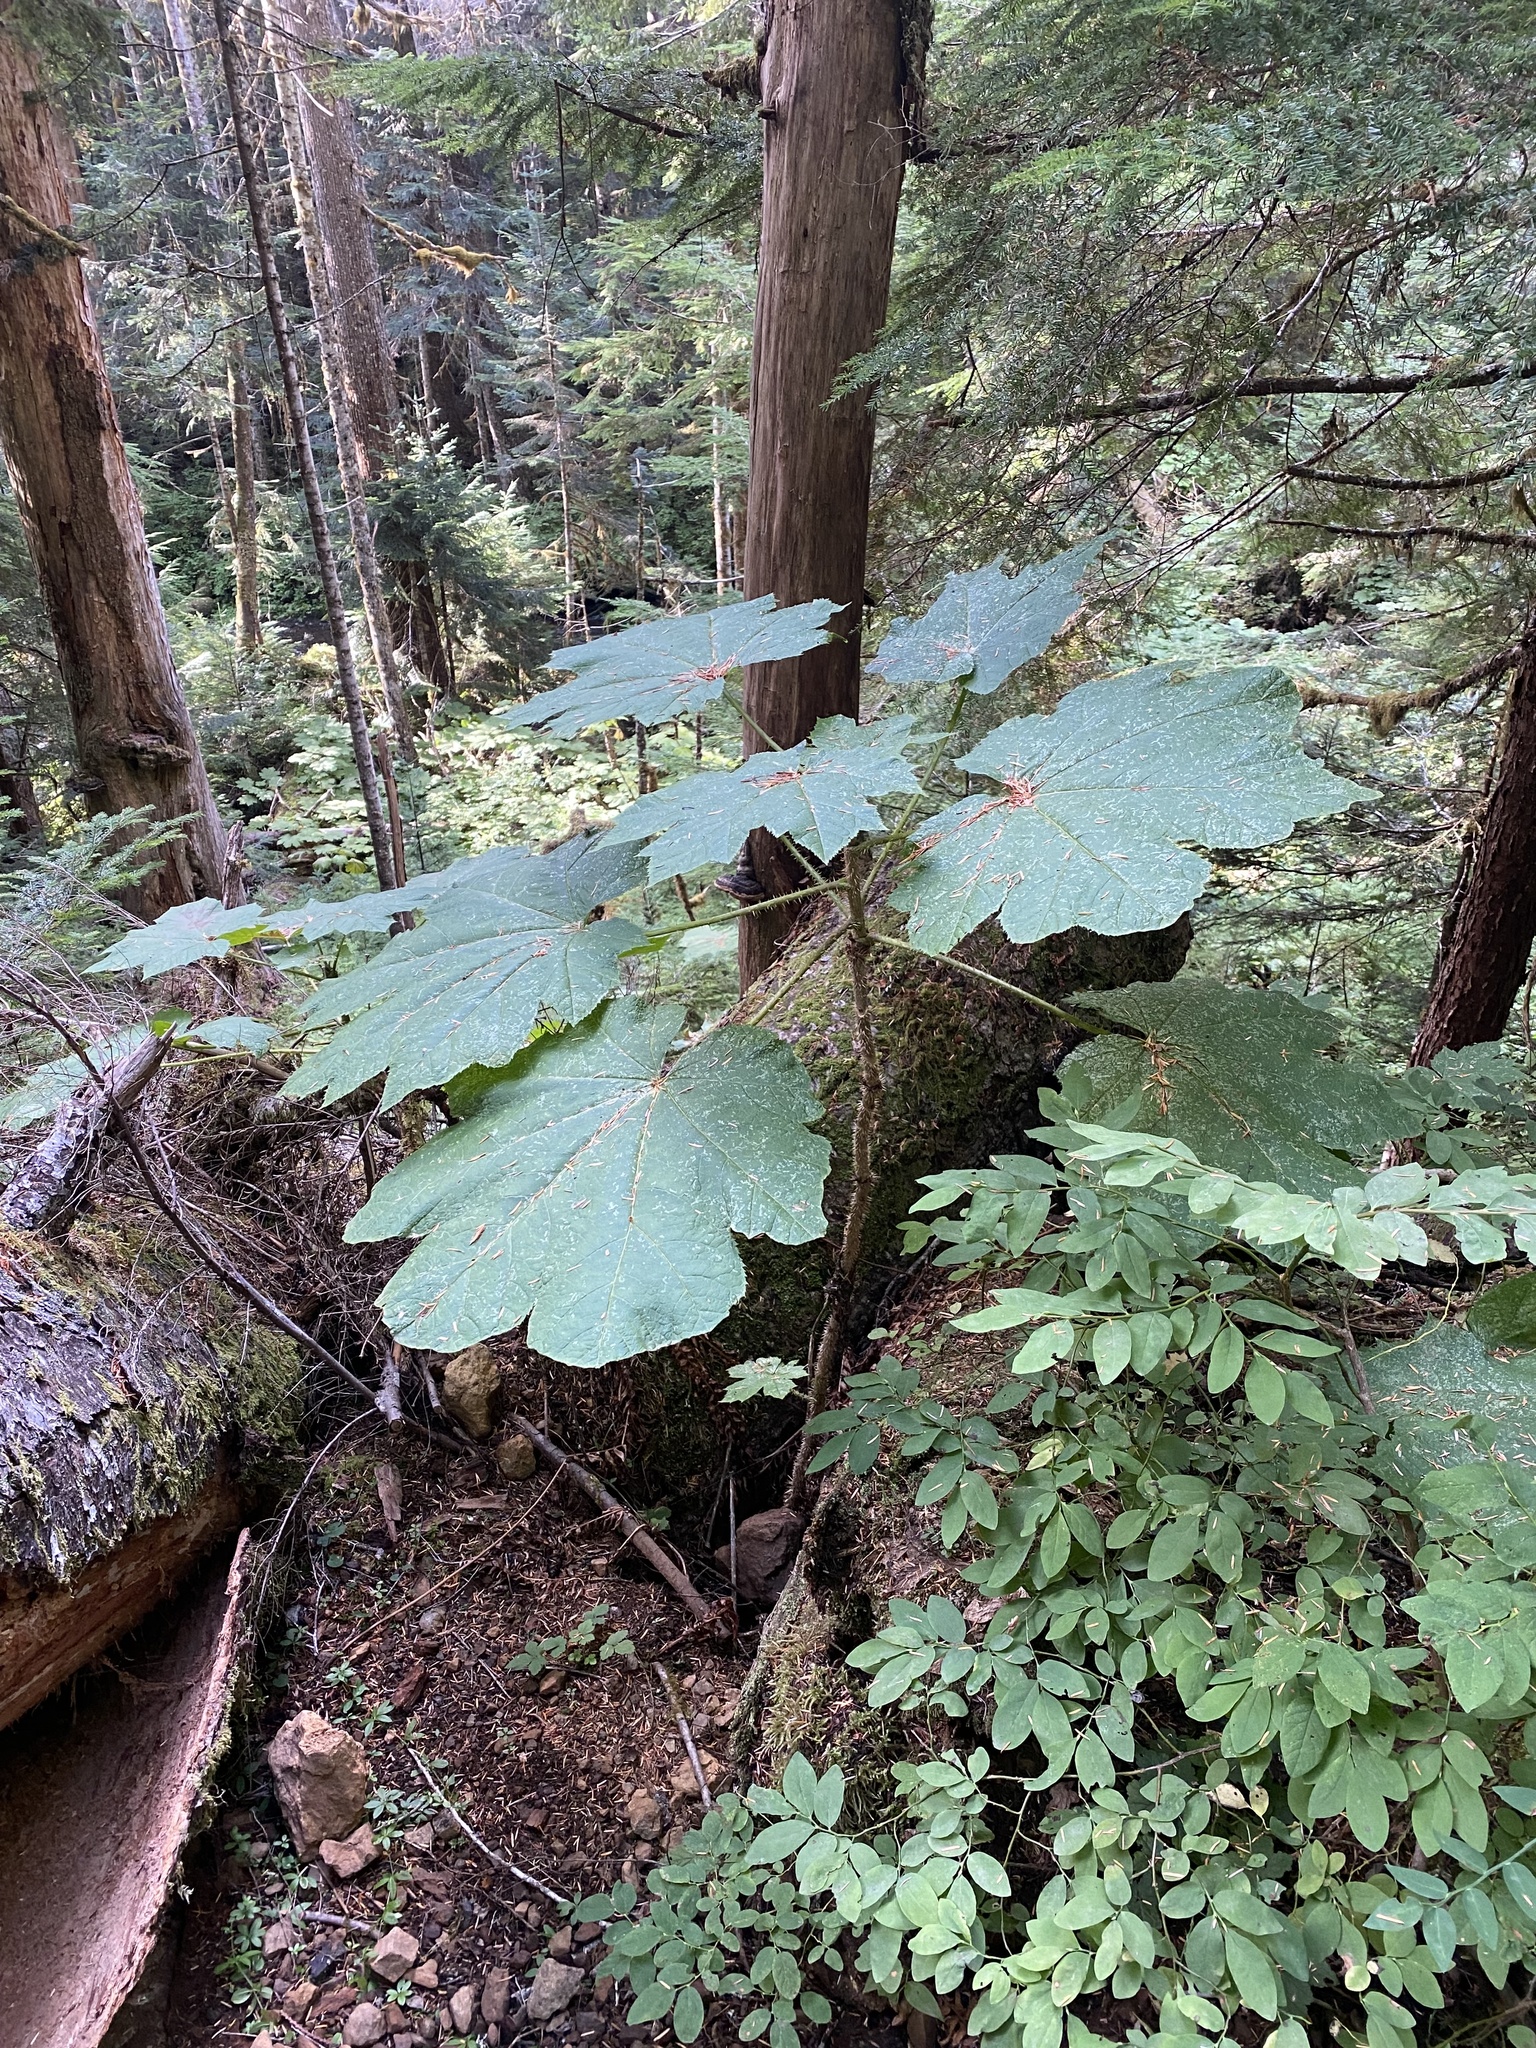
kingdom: Plantae
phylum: Tracheophyta
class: Magnoliopsida
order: Apiales
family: Araliaceae
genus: Oplopanax
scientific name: Oplopanax horridus
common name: Devil's walking-stick
